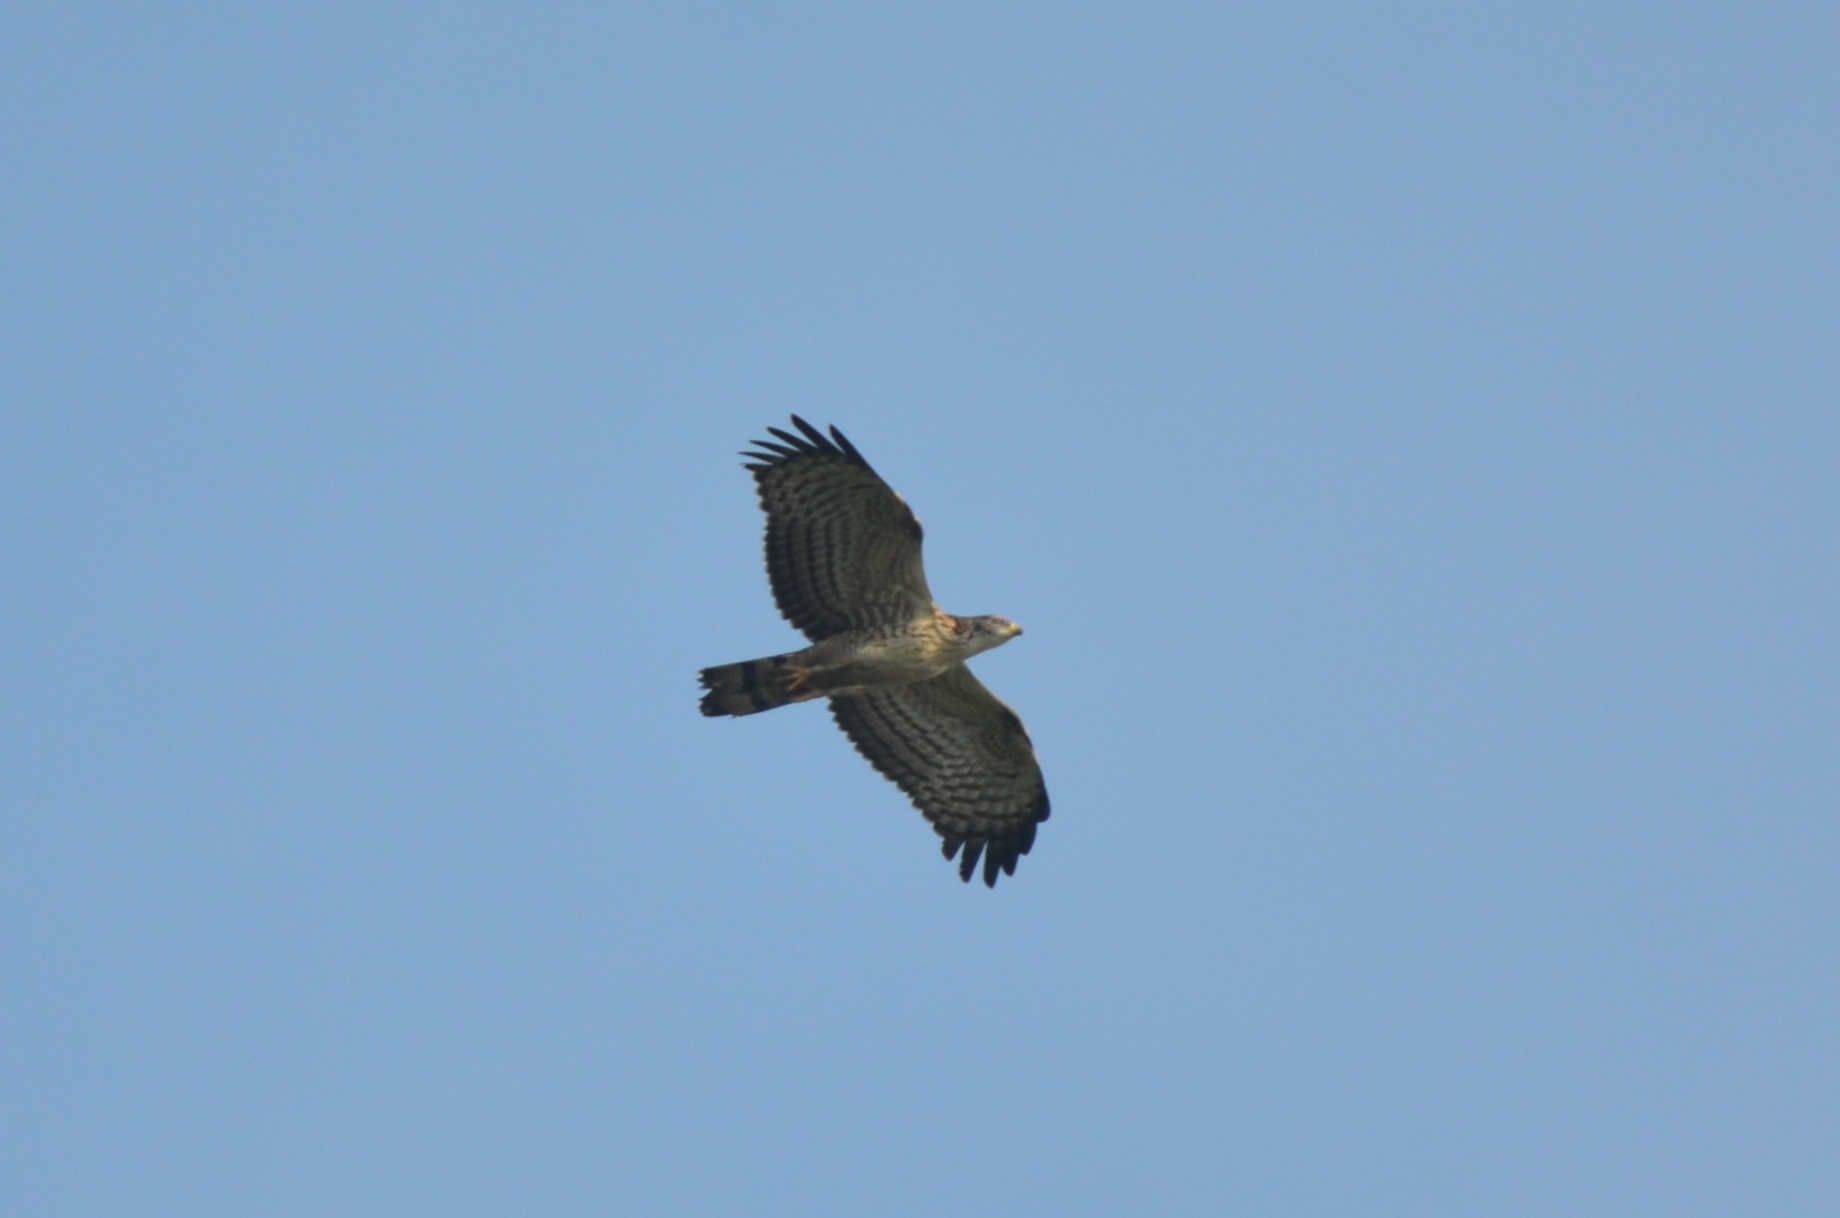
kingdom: Animalia
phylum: Chordata
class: Aves
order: Accipitriformes
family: Accipitridae
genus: Pernis
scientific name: Pernis ptilorhynchus
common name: Crested honey buzzard
